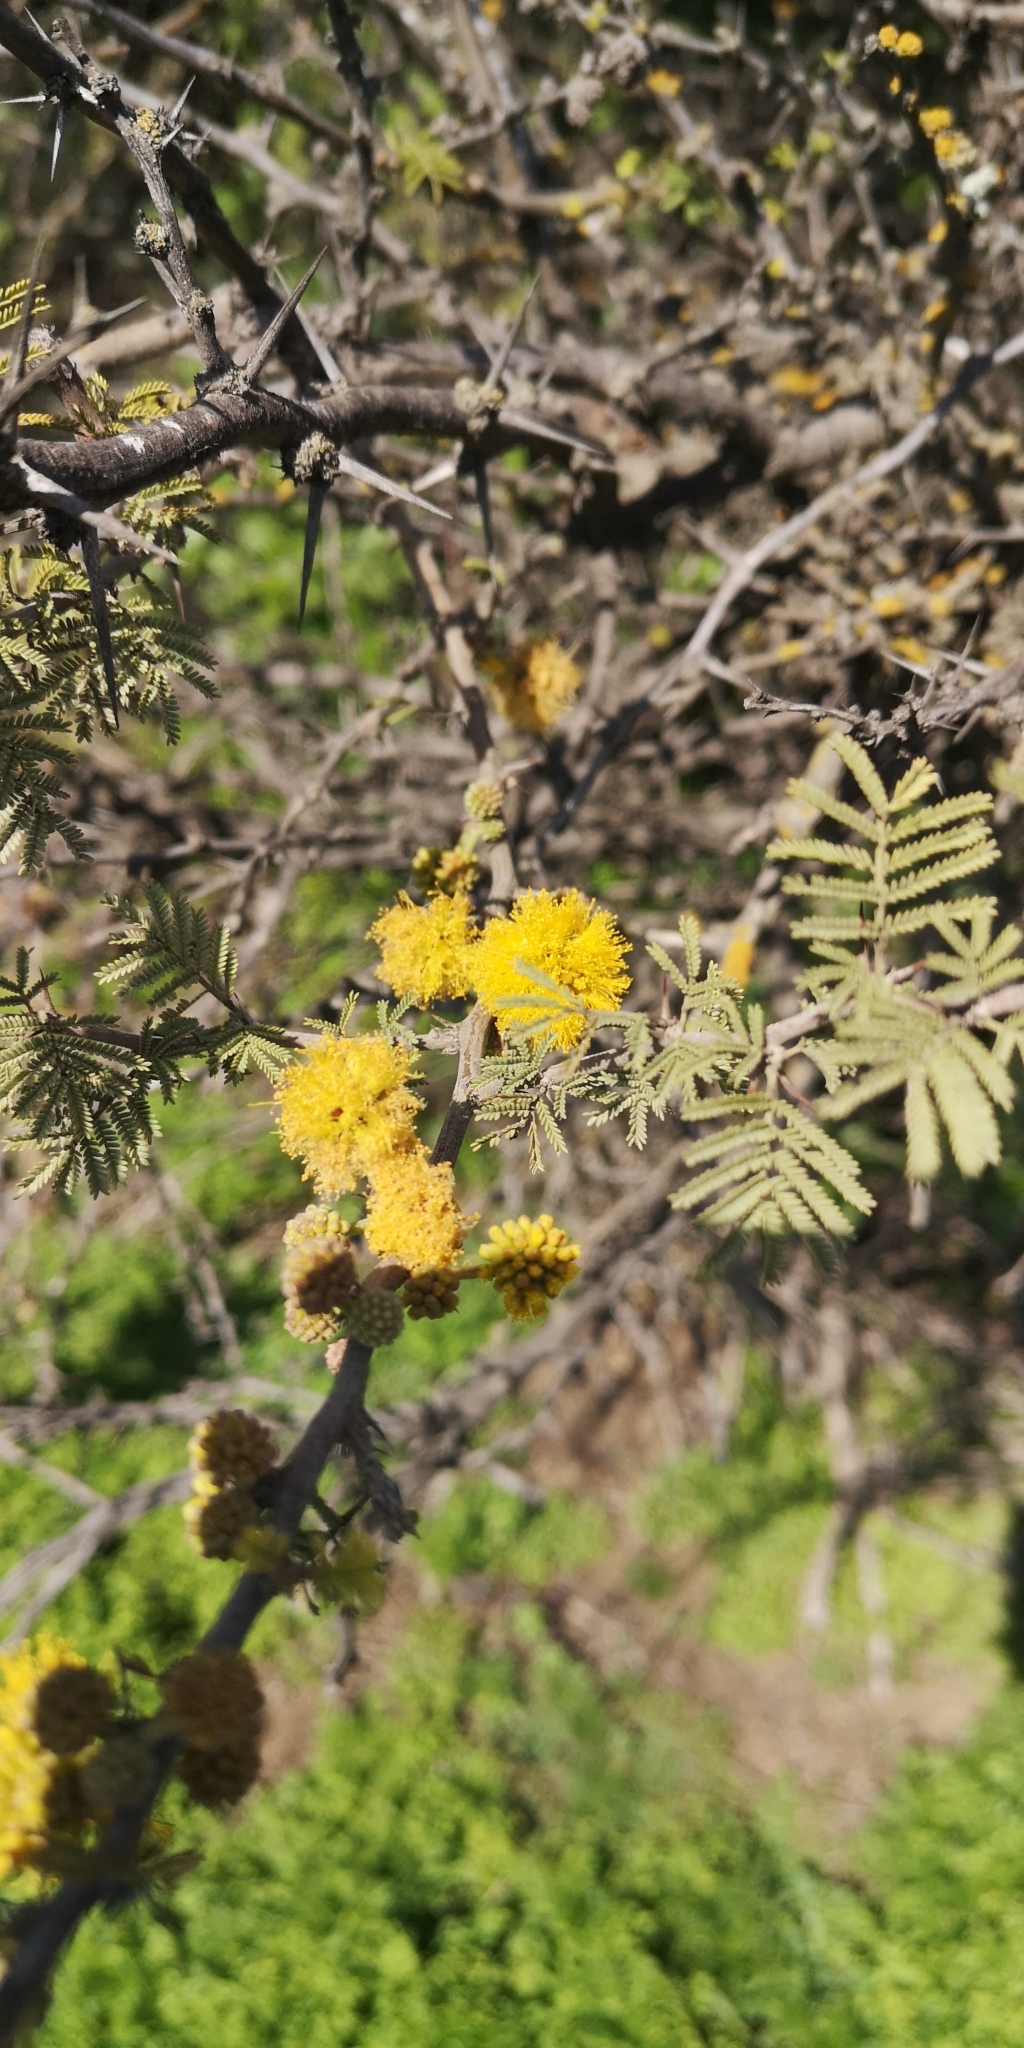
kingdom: Plantae
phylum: Tracheophyta
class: Magnoliopsida
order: Fabales
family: Fabaceae
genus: Vachellia
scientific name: Vachellia caven
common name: Roman cassie
